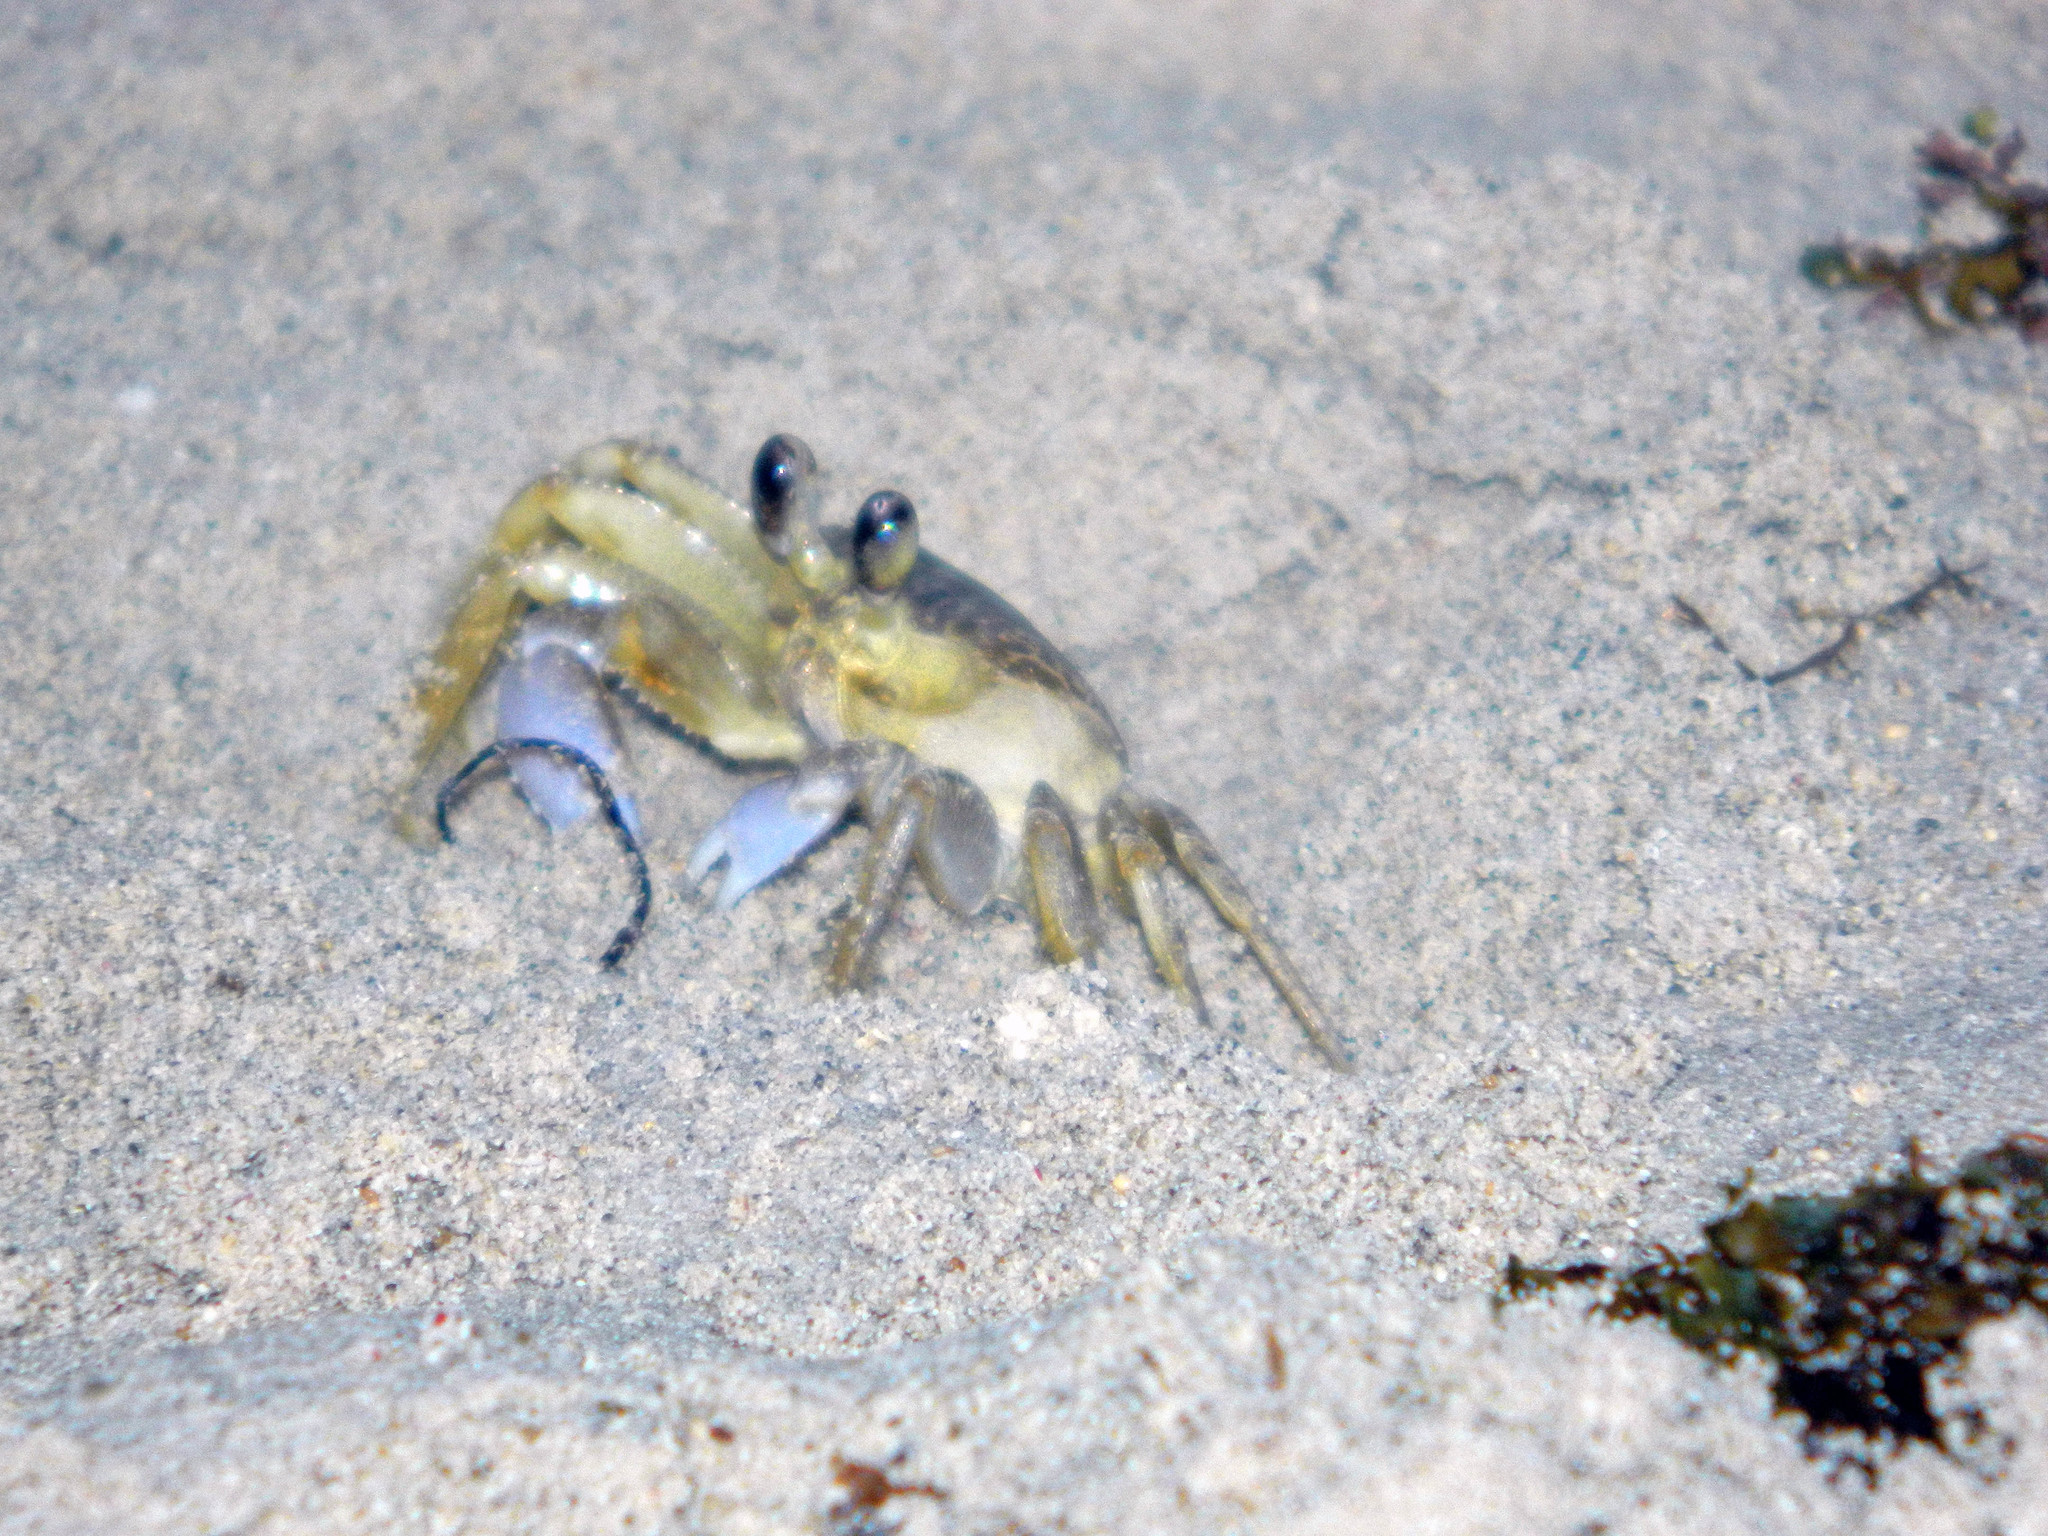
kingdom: Animalia
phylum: Arthropoda
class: Malacostraca
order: Decapoda
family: Ocypodidae
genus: Ocypode
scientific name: Ocypode quadrata
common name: Ghost crab
